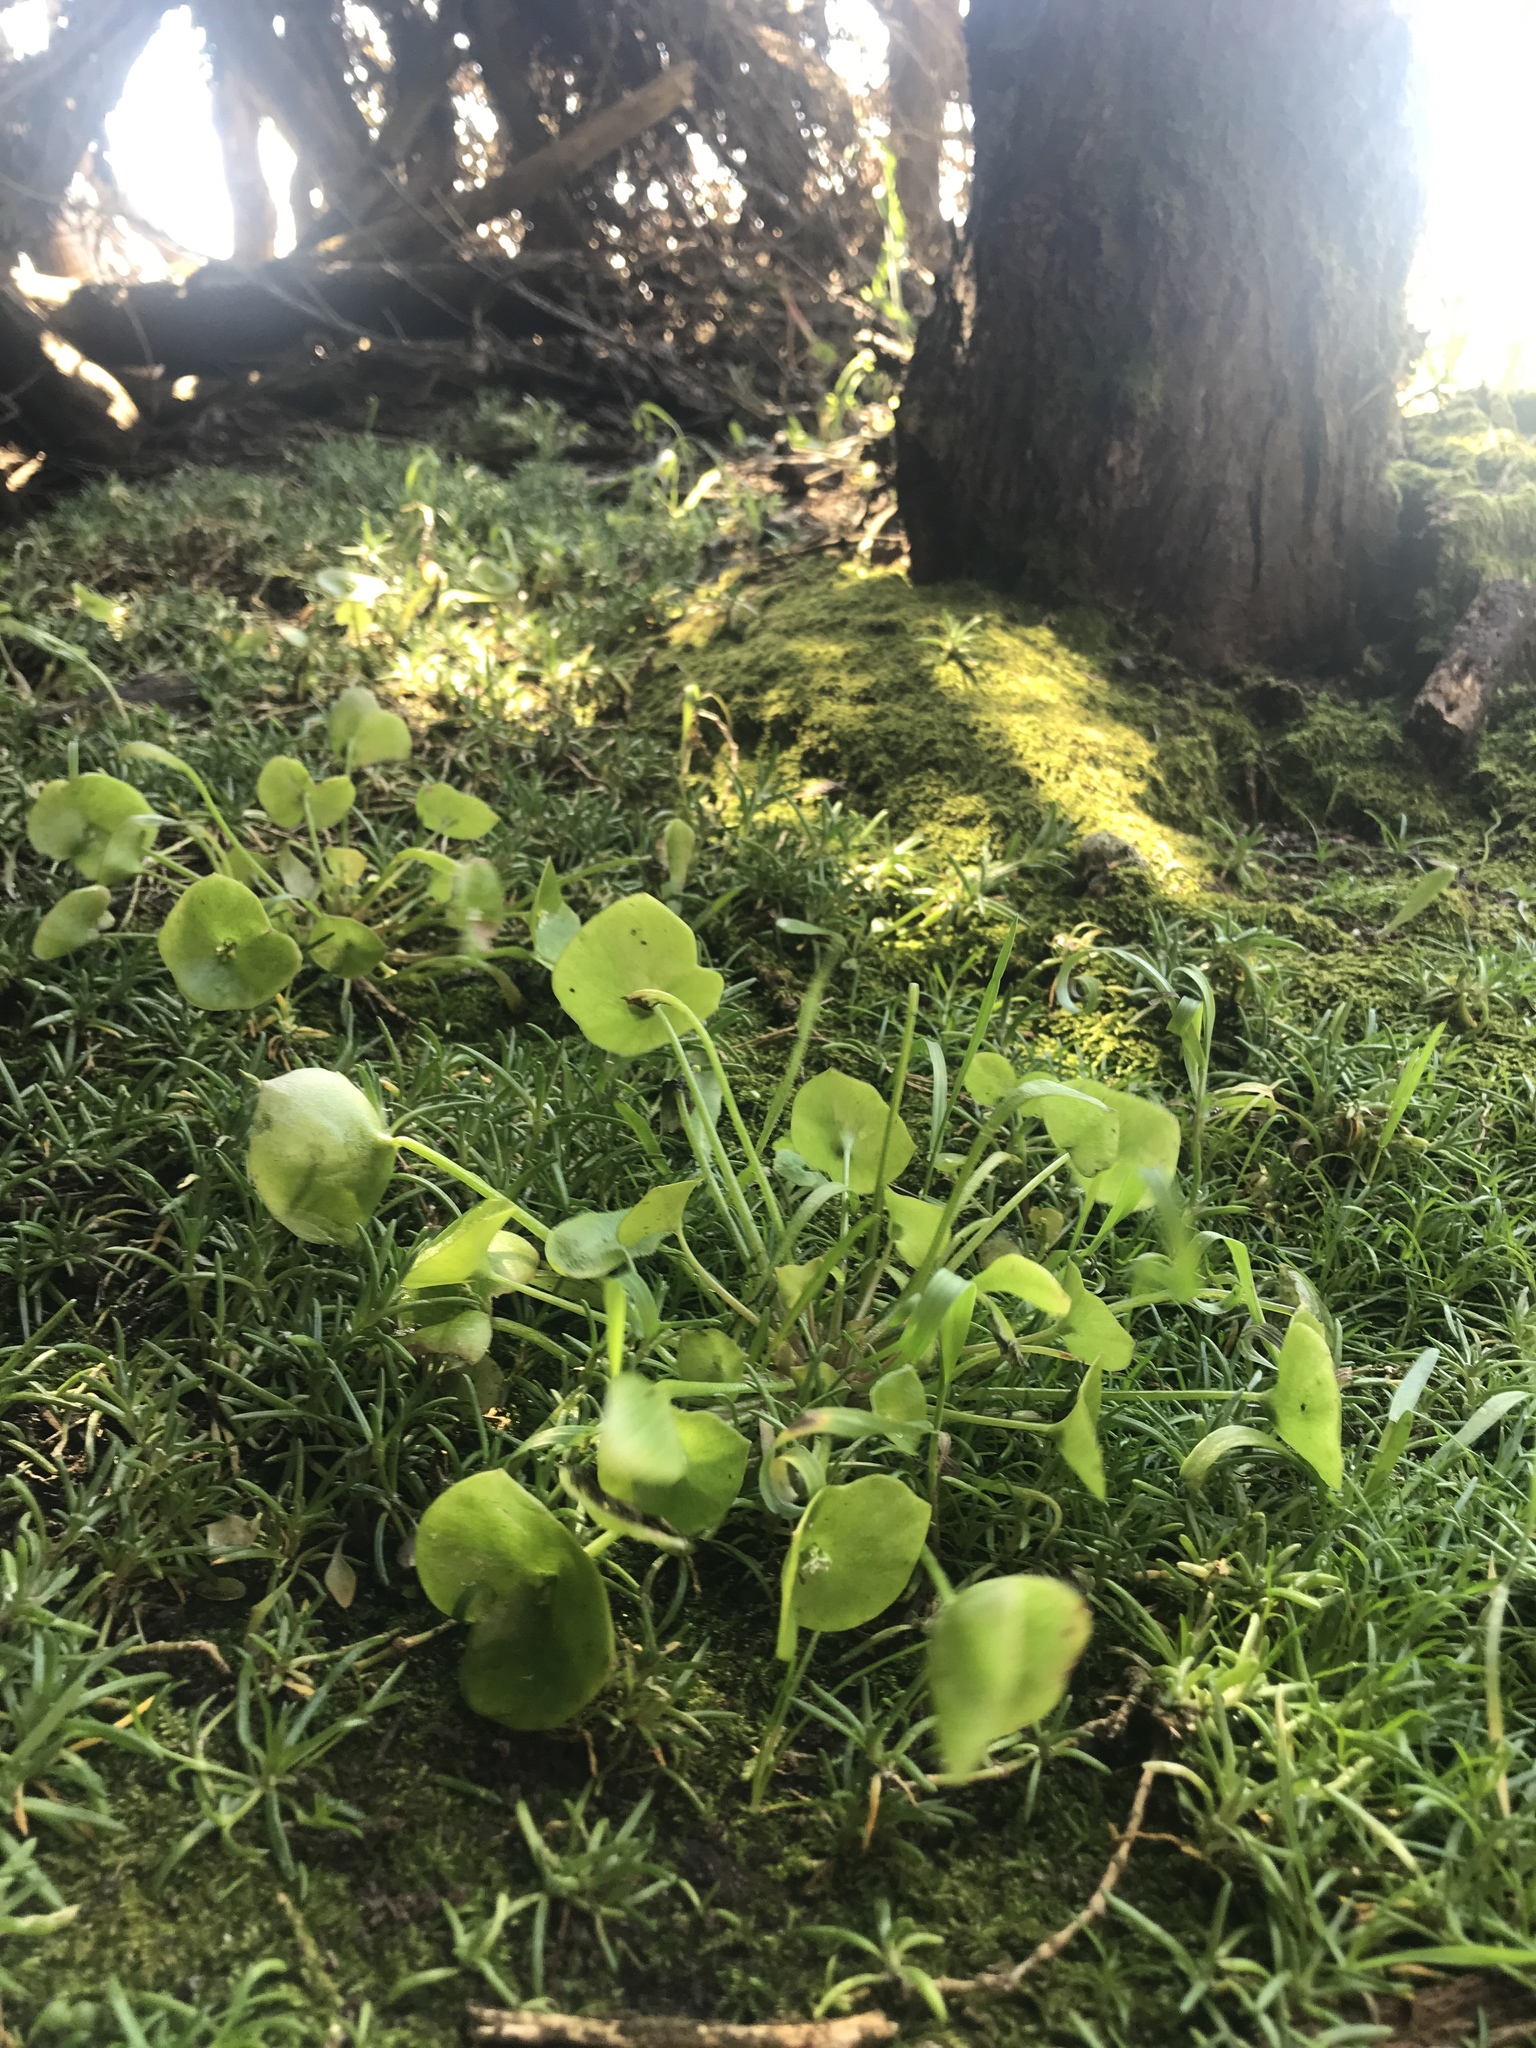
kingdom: Plantae
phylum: Tracheophyta
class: Magnoliopsida
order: Caryophyllales
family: Montiaceae
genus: Claytonia
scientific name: Claytonia perfoliata
